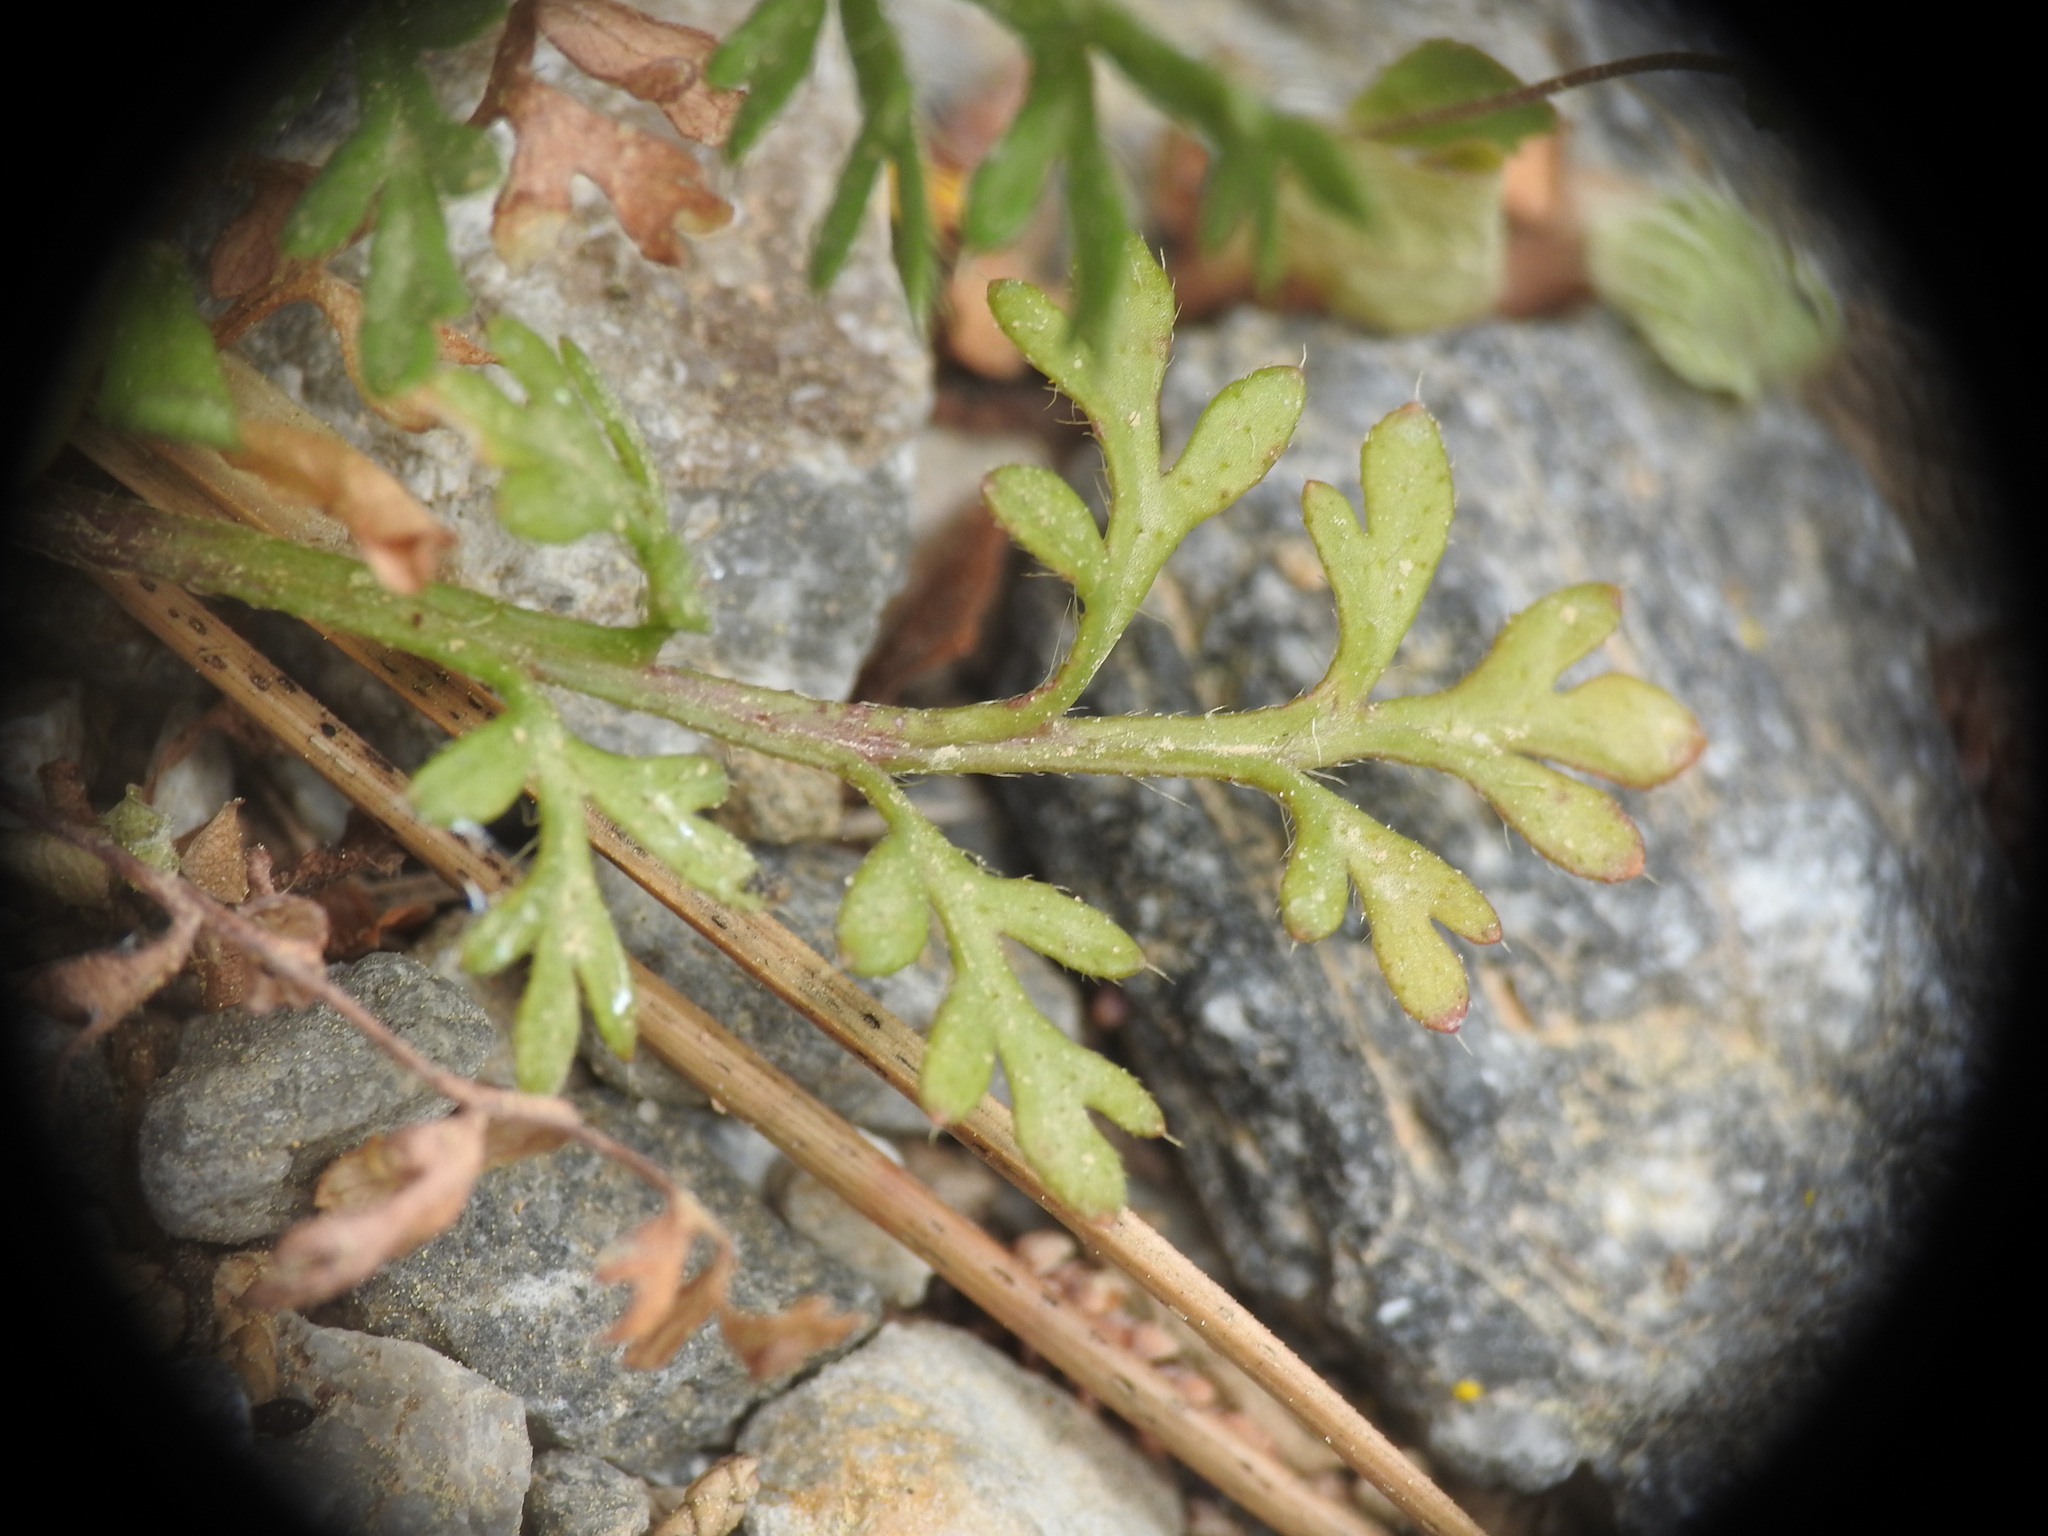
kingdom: Plantae
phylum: Tracheophyta
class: Magnoliopsida
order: Ranunculales
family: Papaveraceae
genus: Roemeria
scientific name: Roemeria apula
